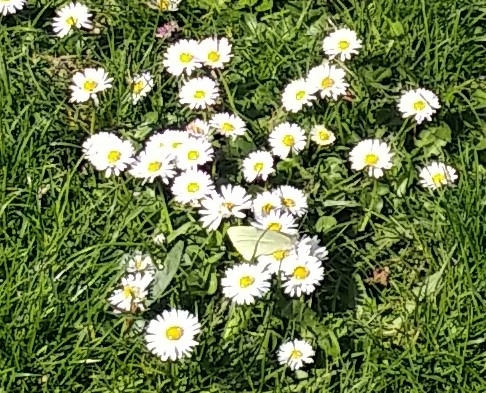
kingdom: Animalia
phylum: Arthropoda
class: Insecta
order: Lepidoptera
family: Pieridae
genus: Pieris
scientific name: Pieris brassicae
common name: Large white
